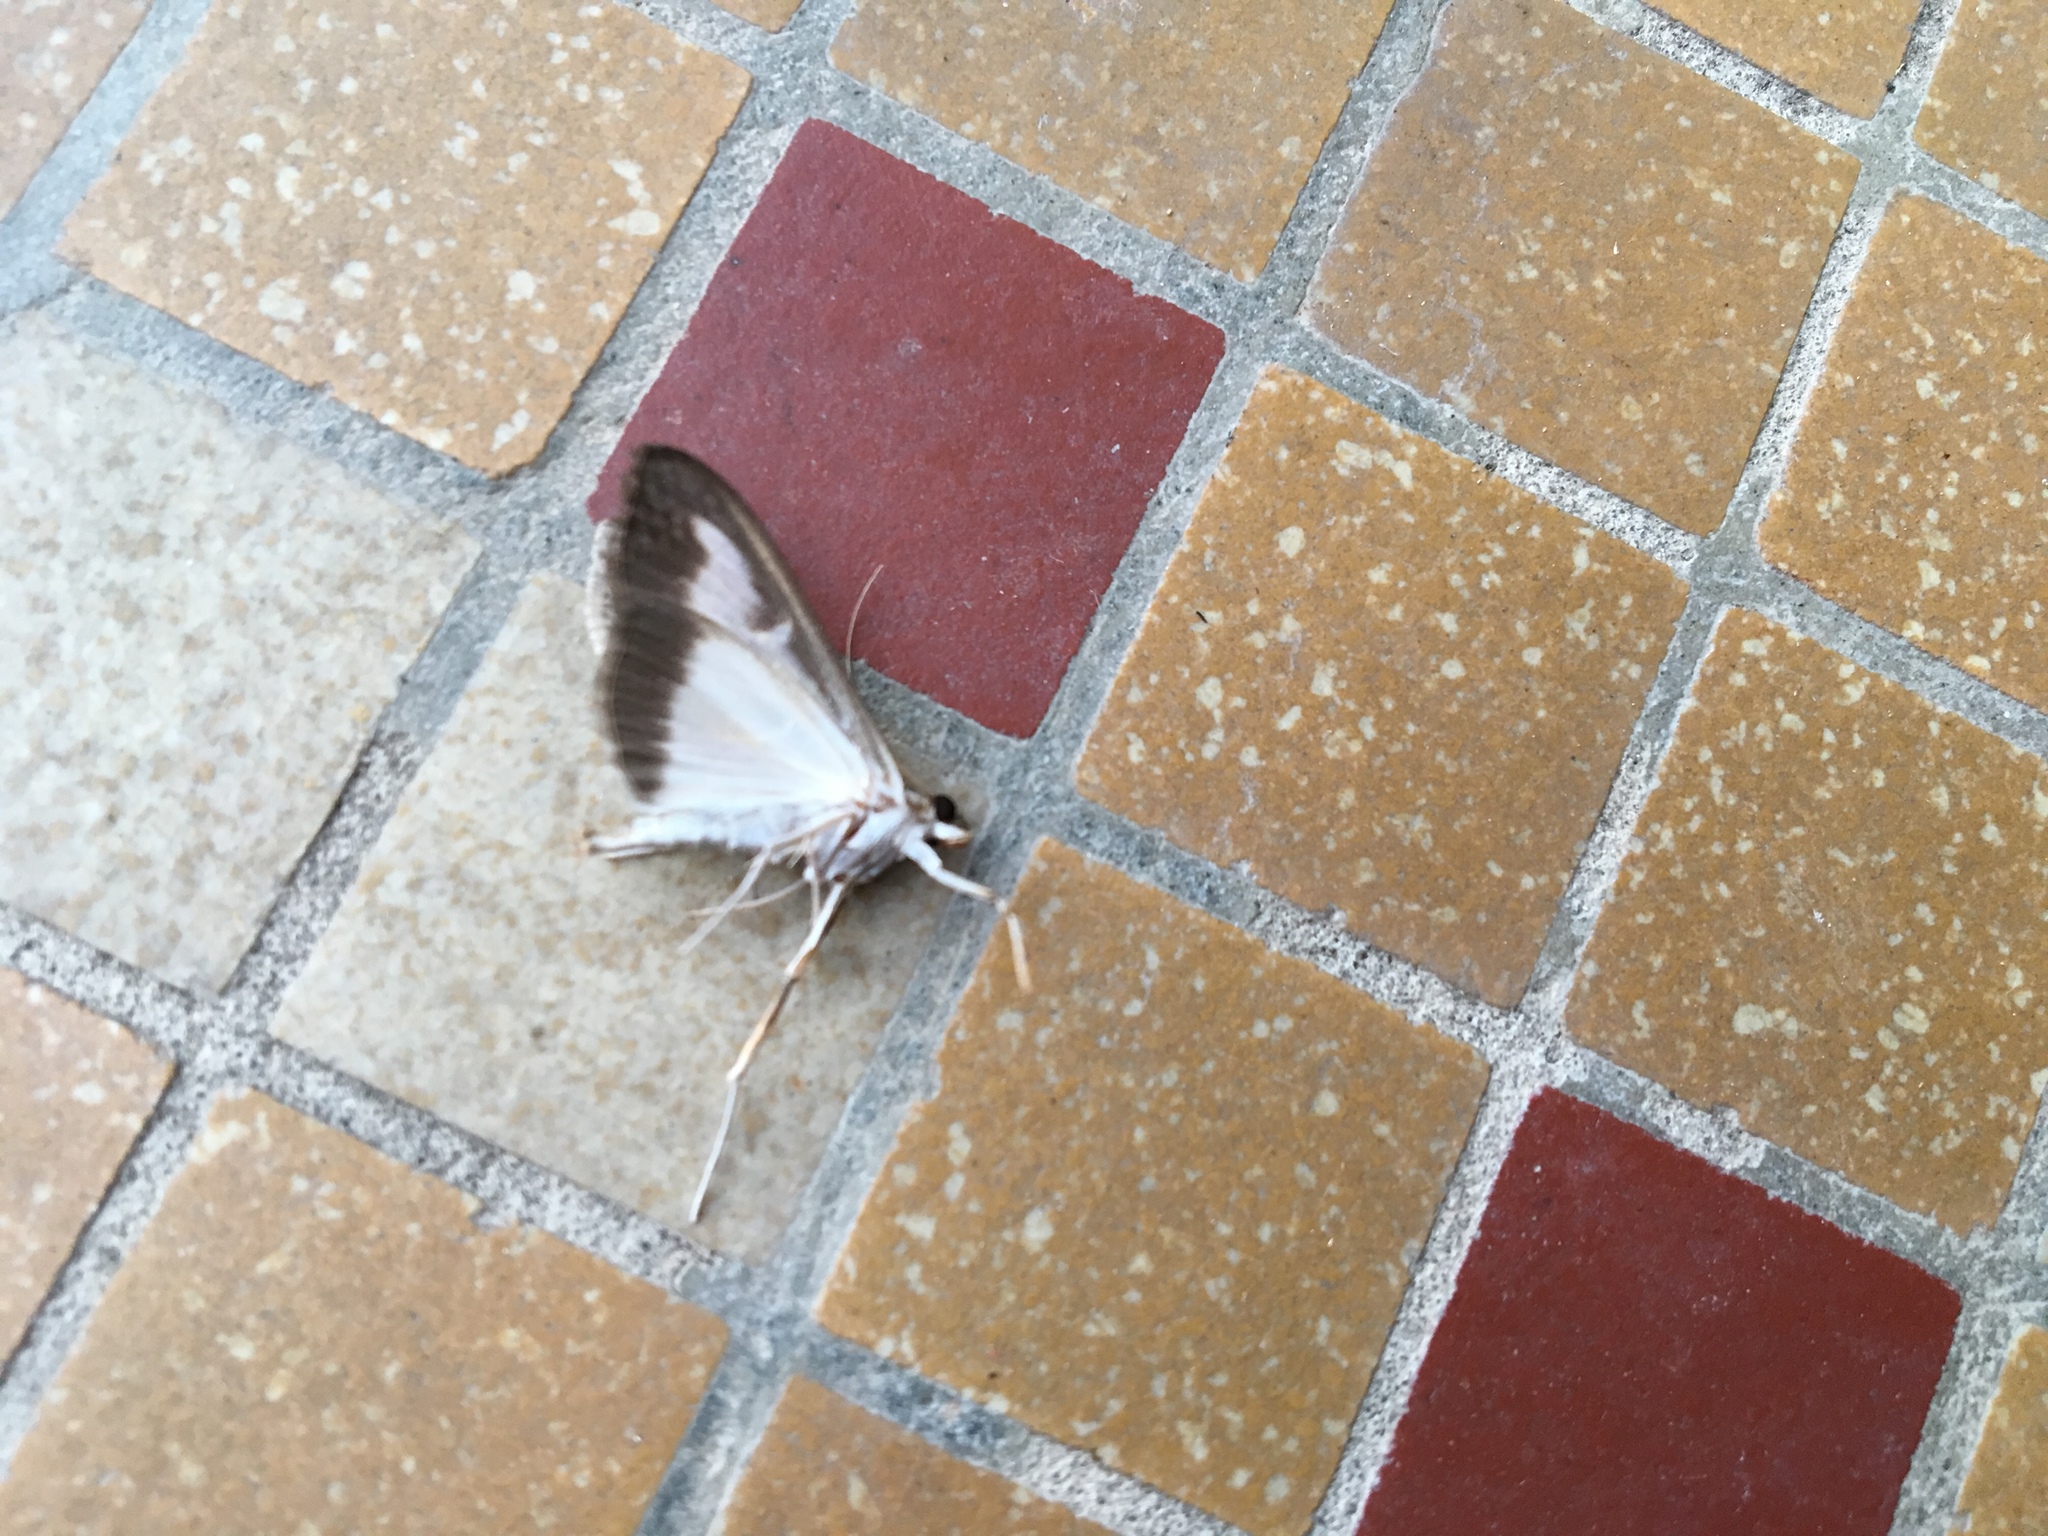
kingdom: Animalia
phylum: Arthropoda
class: Insecta
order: Lepidoptera
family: Crambidae
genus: Cydalima
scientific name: Cydalima perspectalis
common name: Box tree moth
